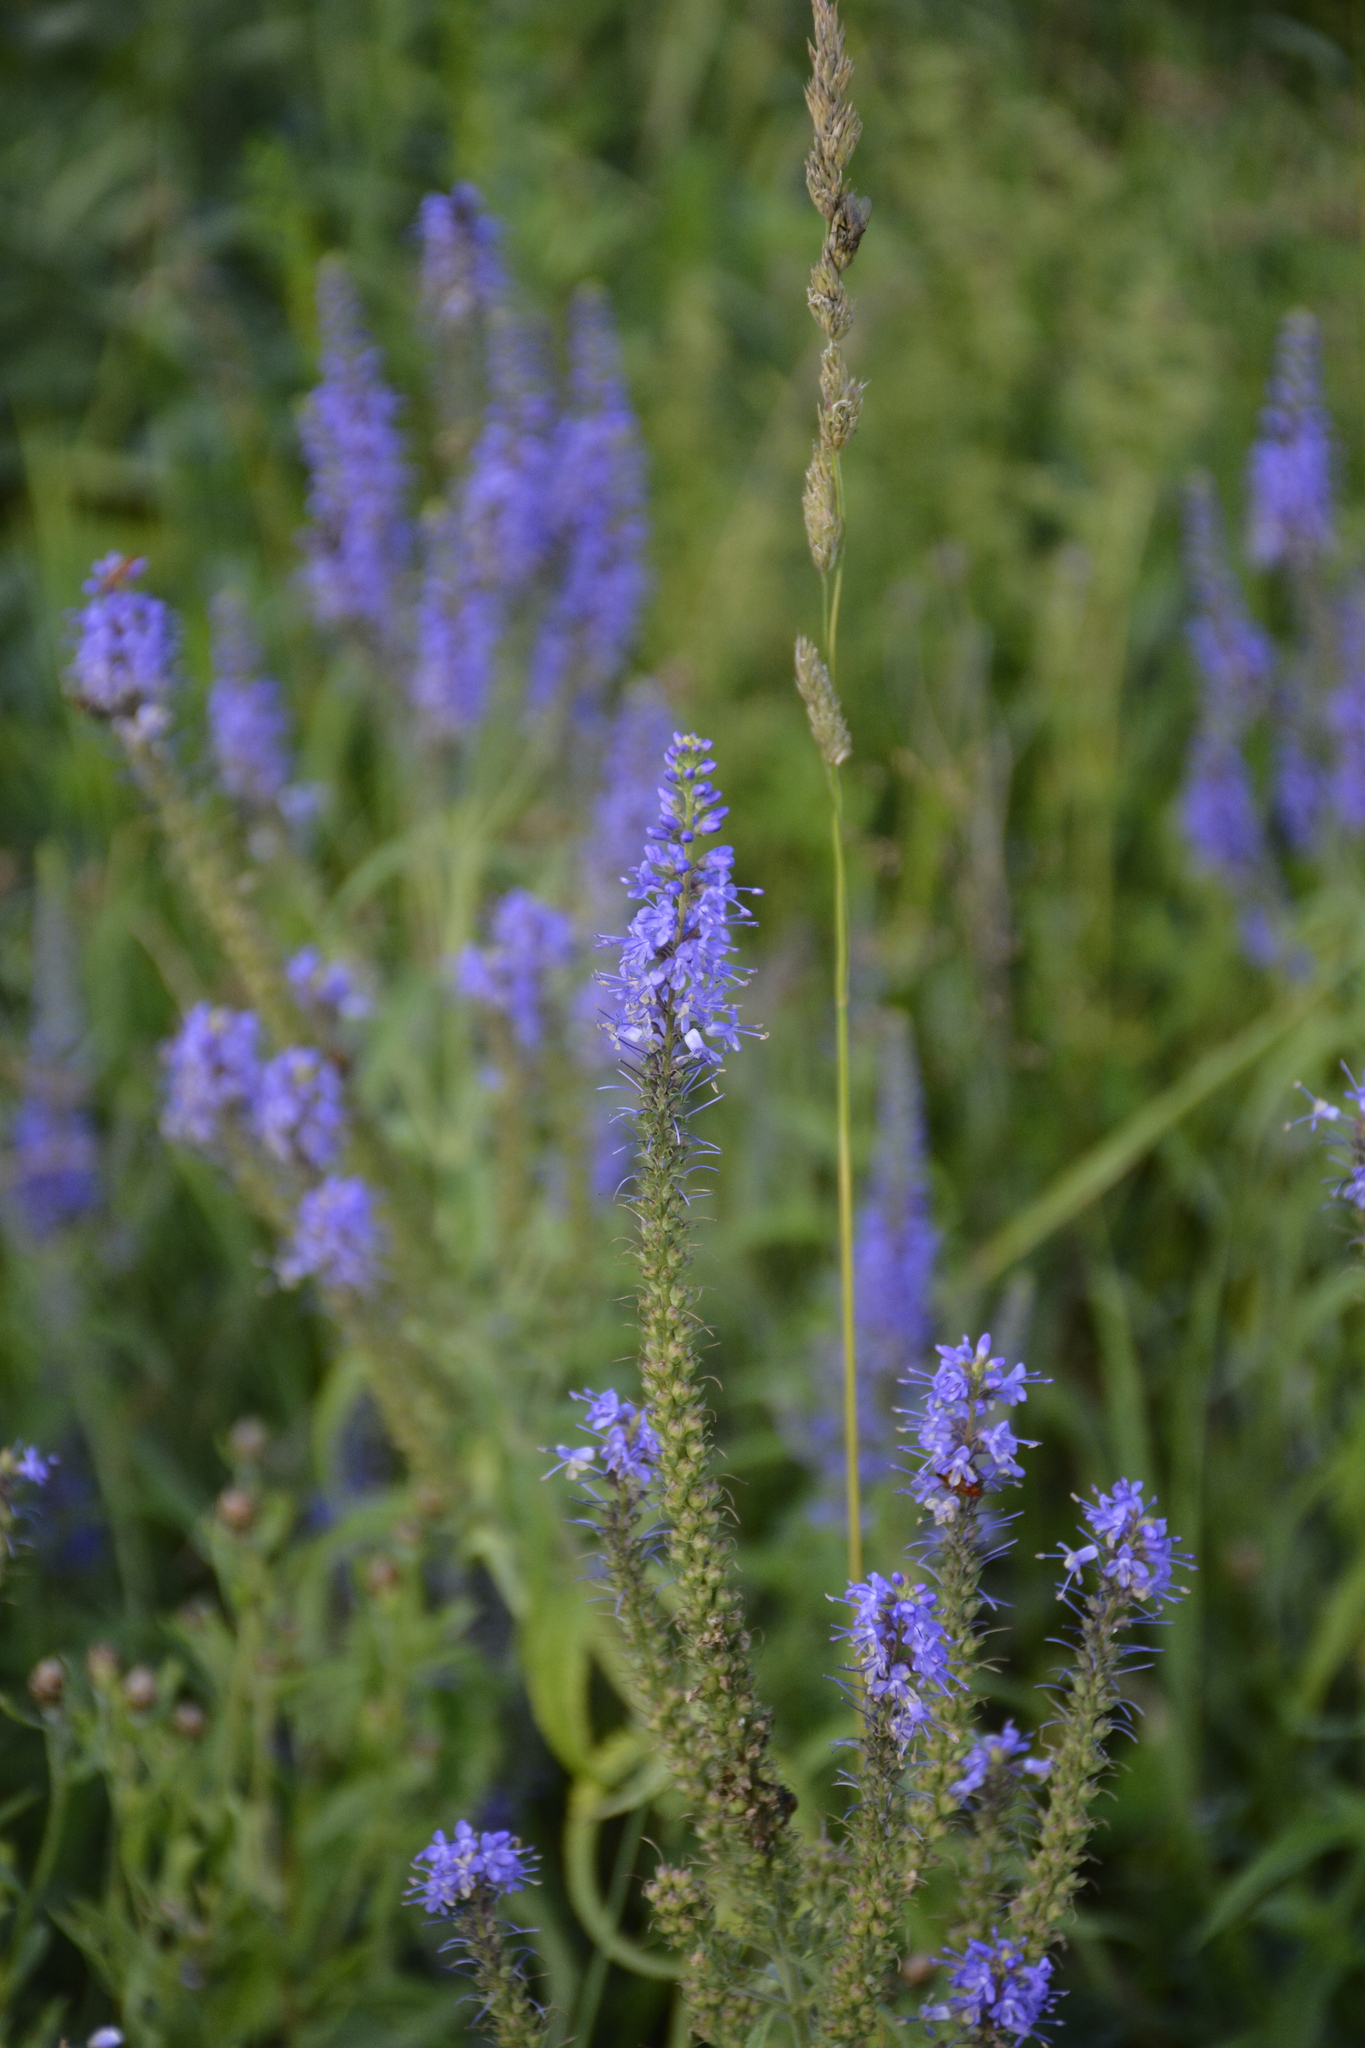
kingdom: Plantae
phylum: Tracheophyta
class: Magnoliopsida
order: Lamiales
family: Plantaginaceae
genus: Veronica
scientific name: Veronica longifolia
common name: Garden speedwell
